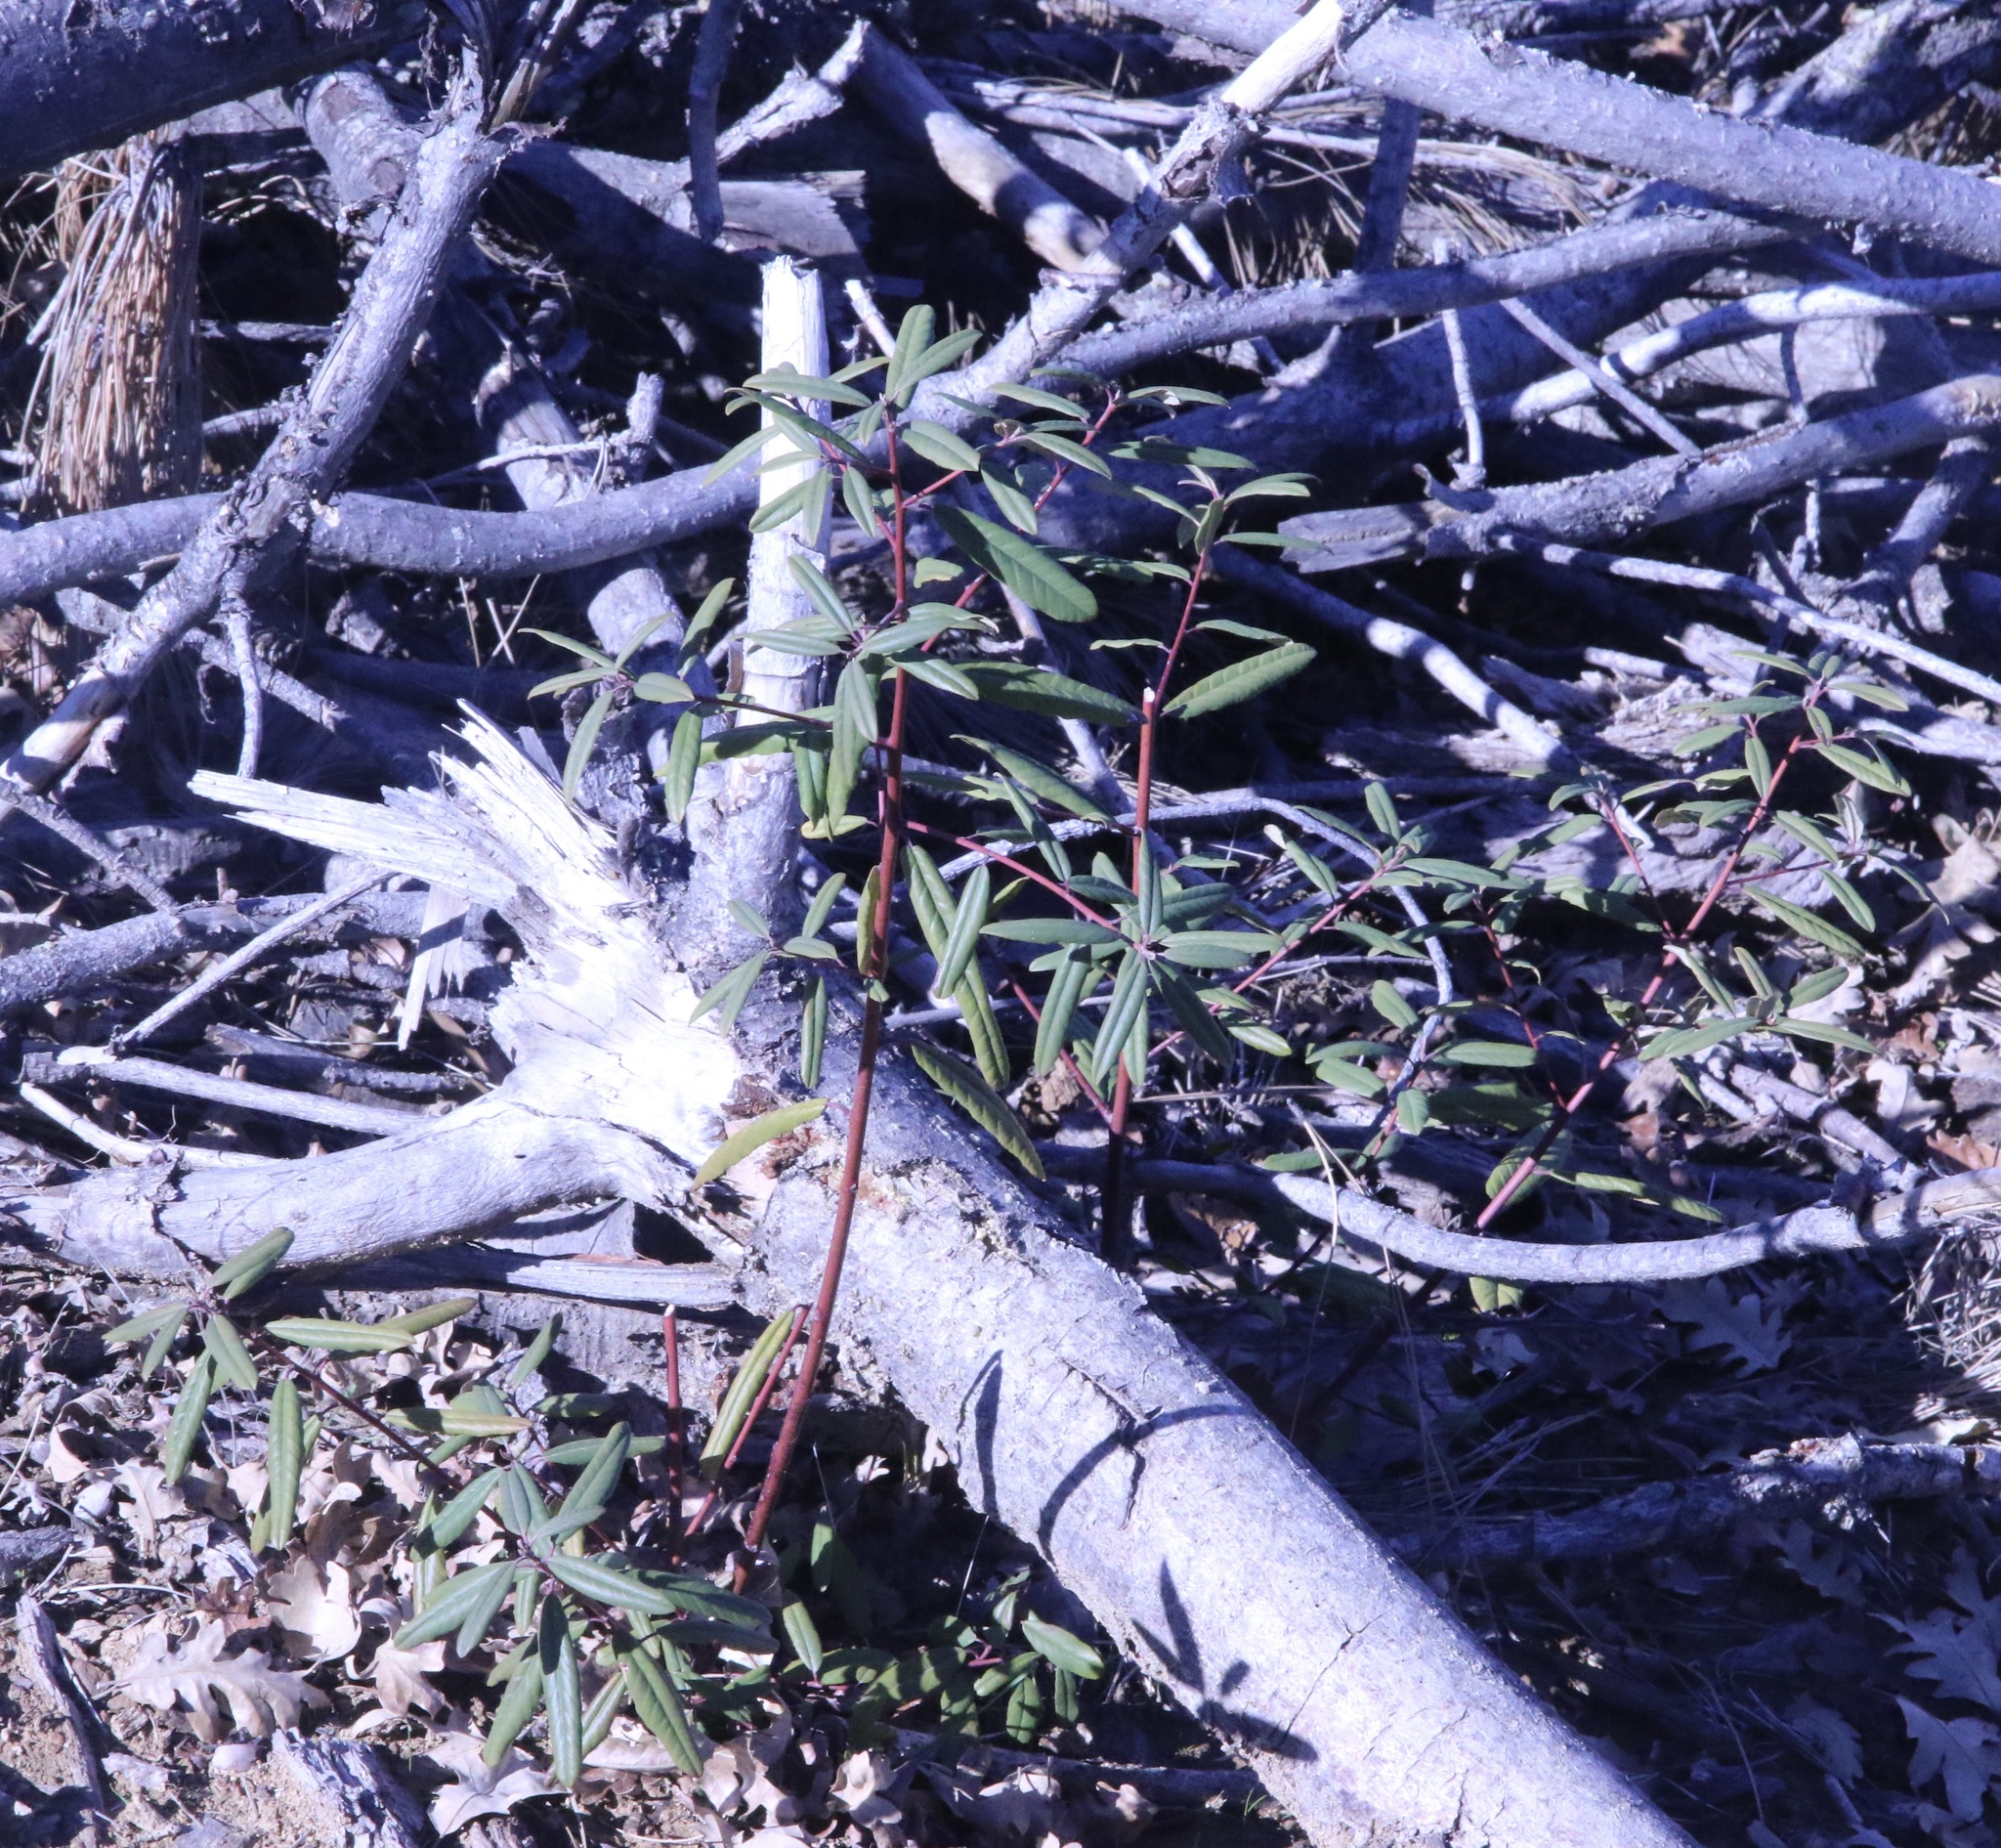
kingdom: Plantae
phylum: Tracheophyta
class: Magnoliopsida
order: Rosales
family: Rhamnaceae
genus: Frangula
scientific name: Frangula californica
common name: California buckthorn
